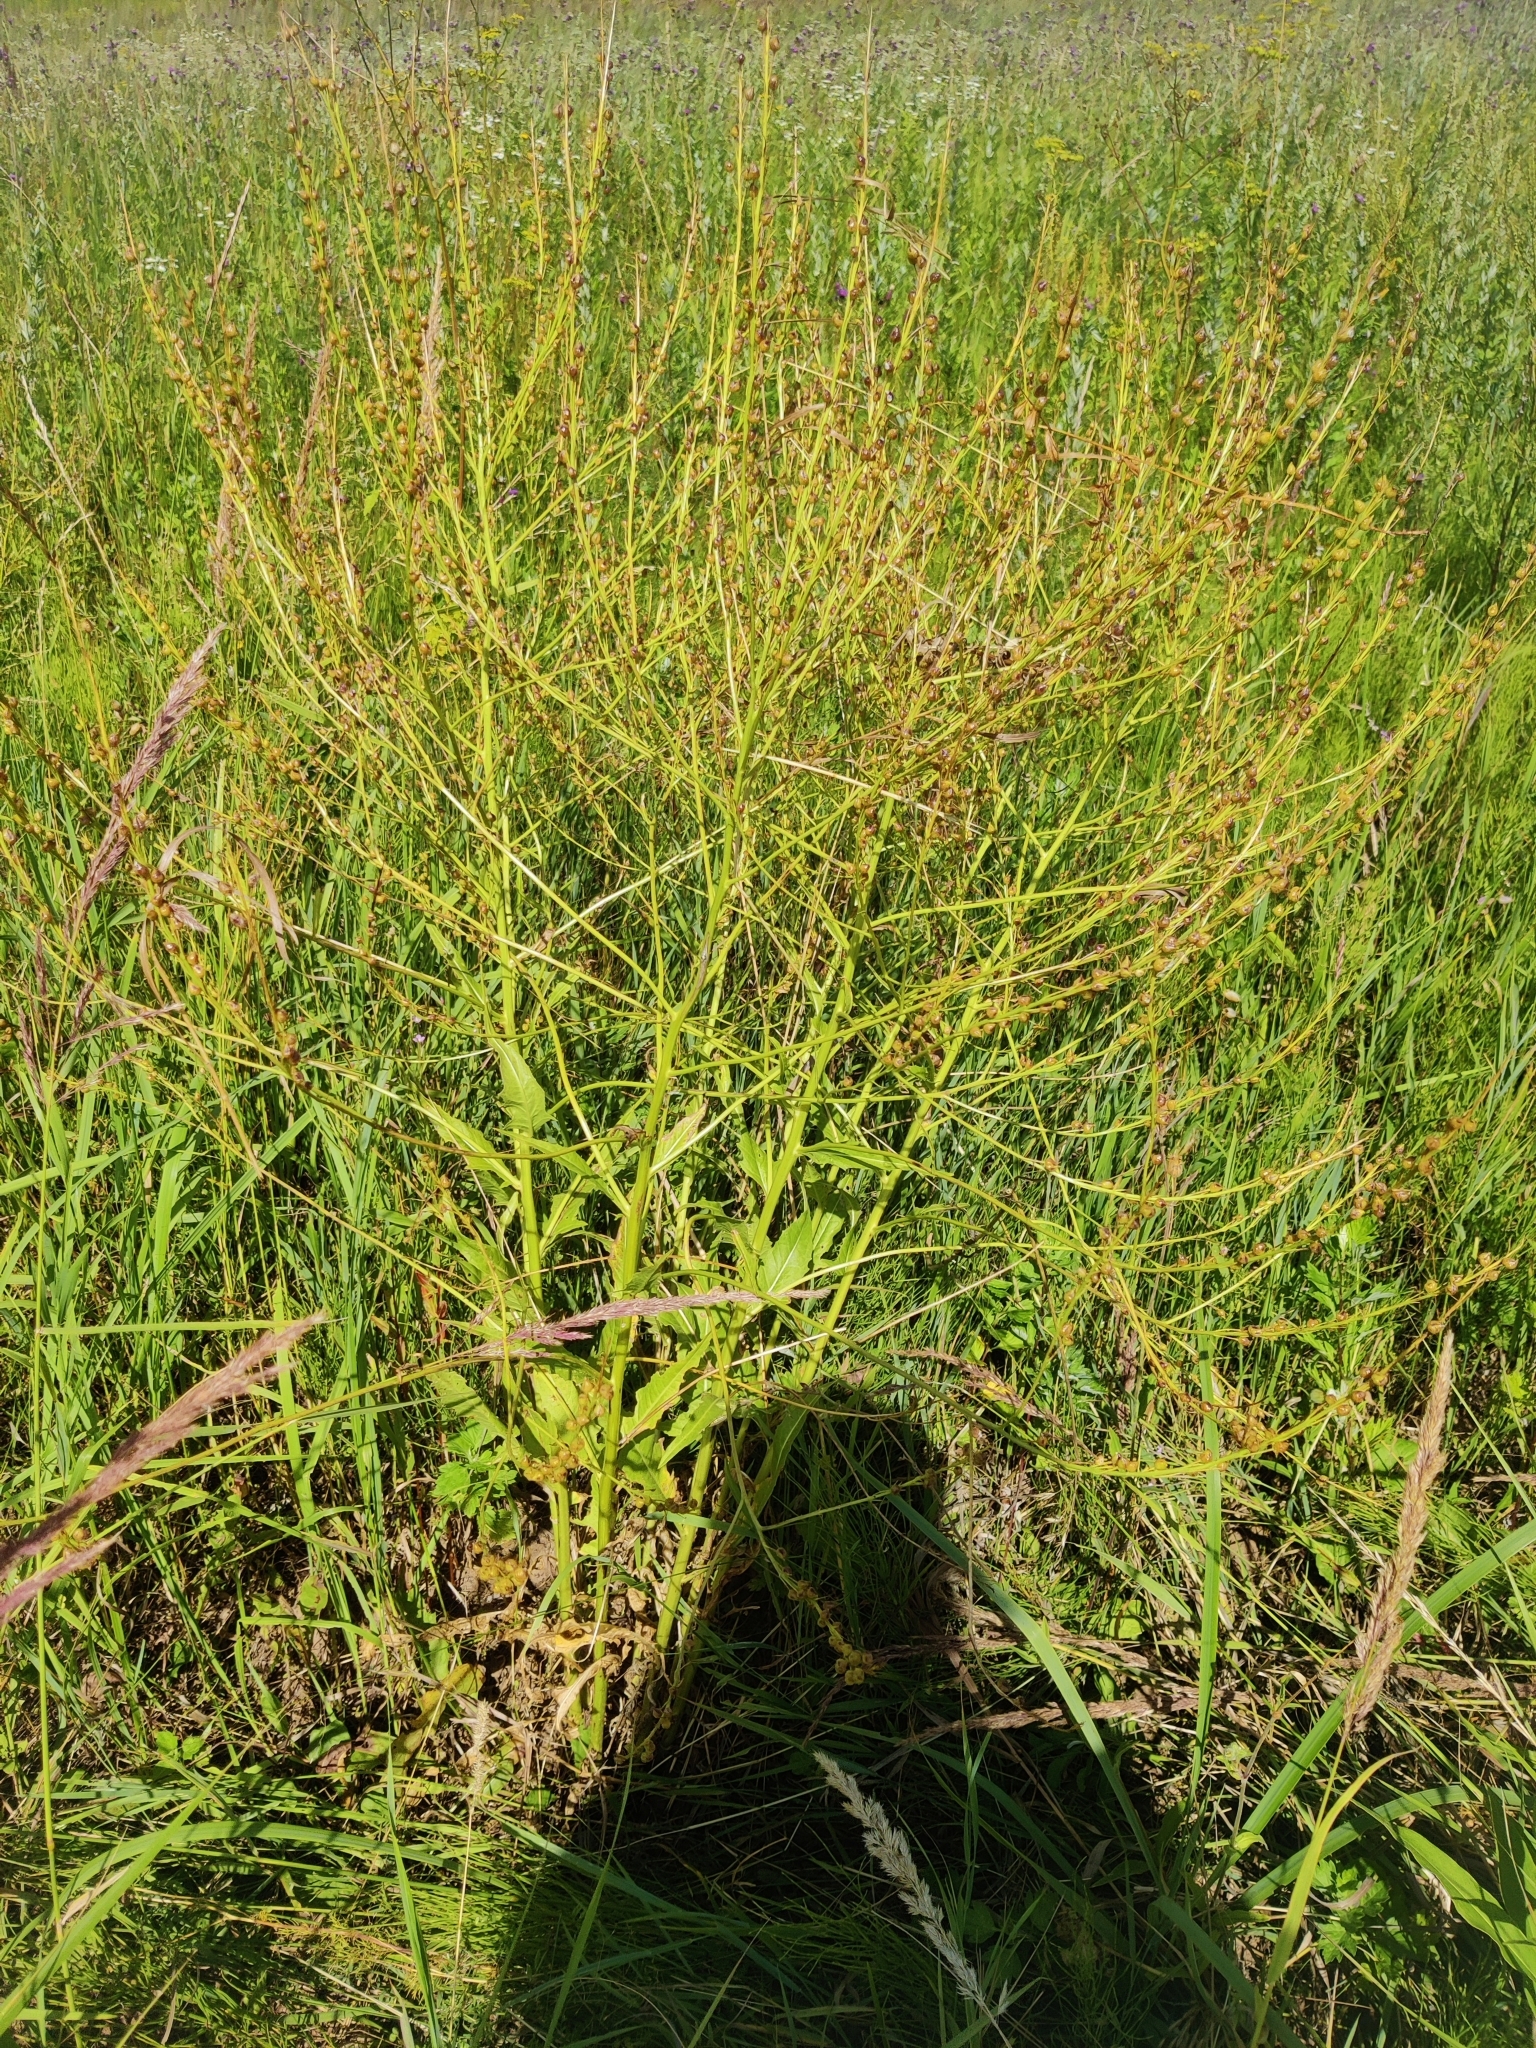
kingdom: Plantae
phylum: Tracheophyta
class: Magnoliopsida
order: Brassicales
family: Brassicaceae
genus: Bunias
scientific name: Bunias orientalis
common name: Warty-cabbage
